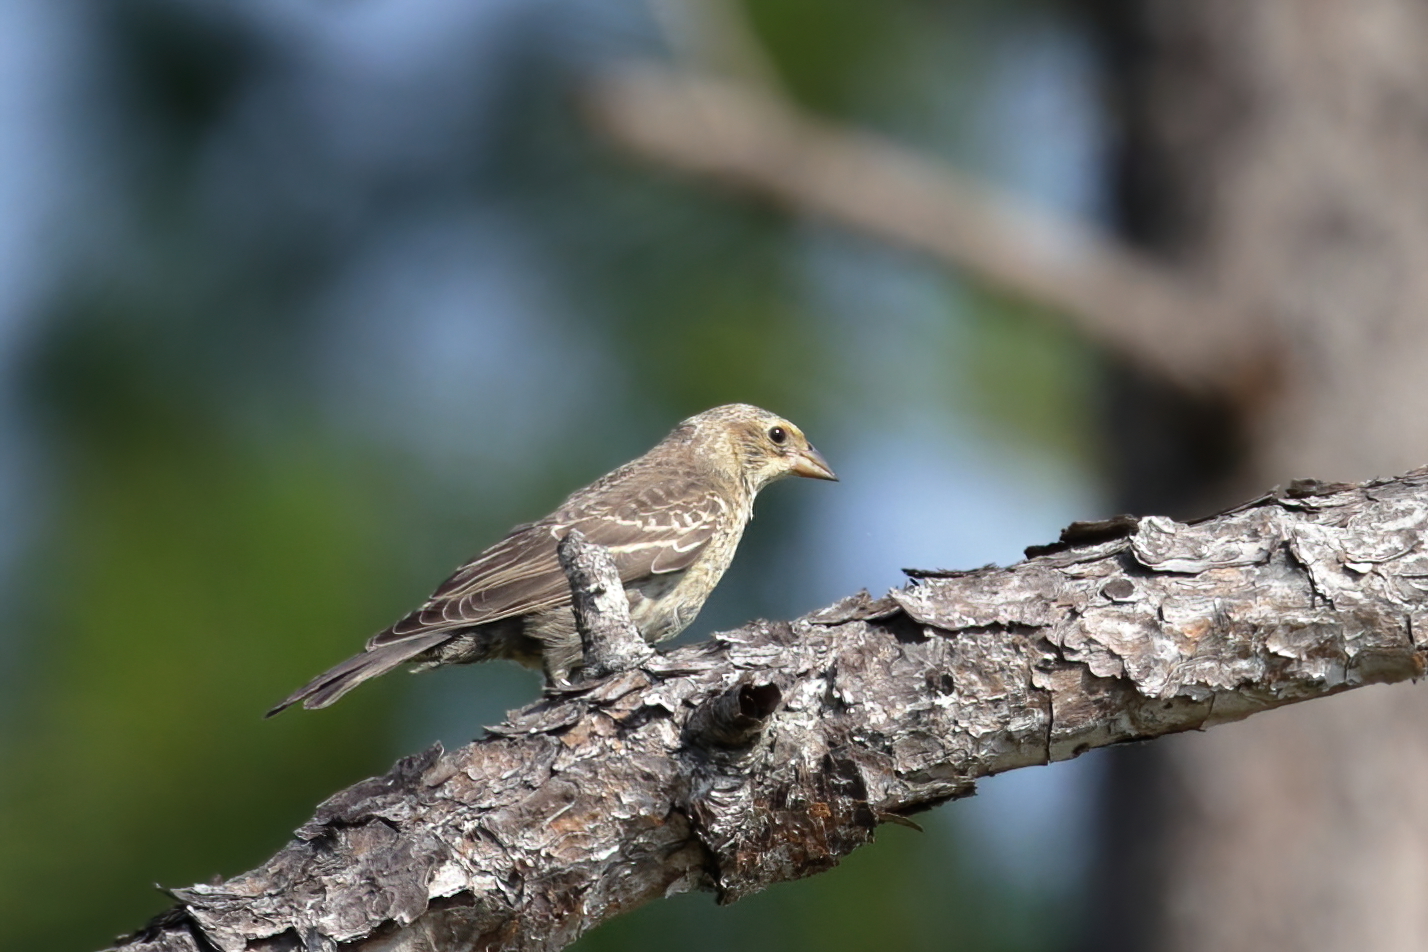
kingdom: Animalia
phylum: Chordata
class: Aves
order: Passeriformes
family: Icteridae
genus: Molothrus
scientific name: Molothrus ater
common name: Brown-headed cowbird
